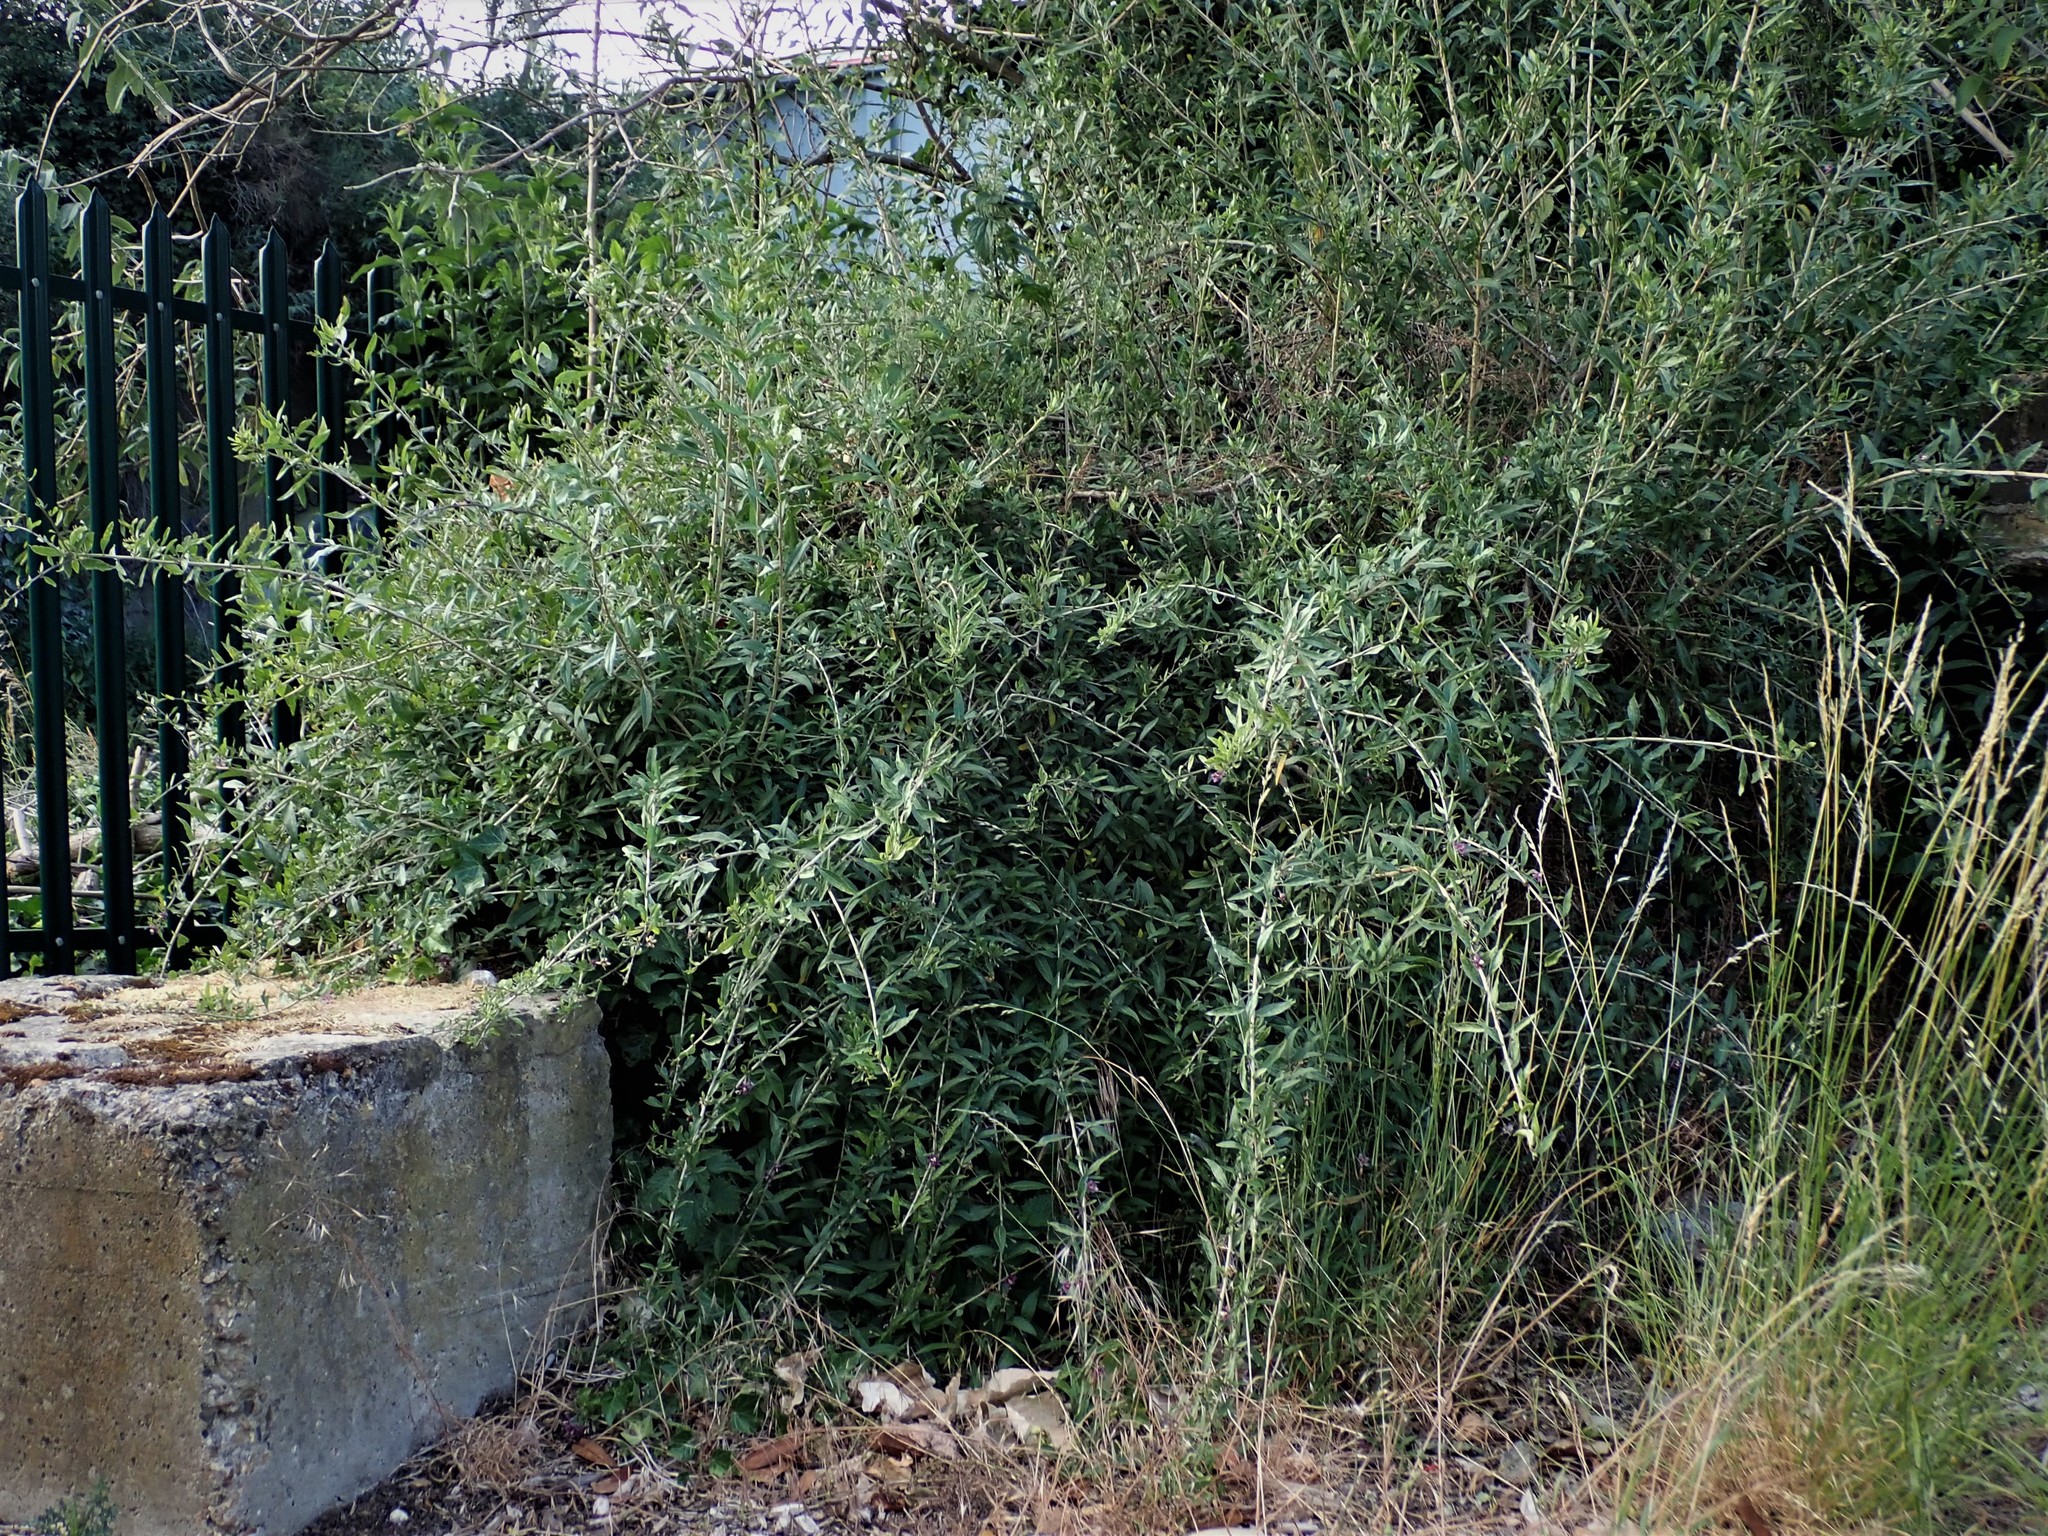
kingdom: Plantae
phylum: Tracheophyta
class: Magnoliopsida
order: Solanales
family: Solanaceae
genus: Lycium
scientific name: Lycium barbarum
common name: Duke of argyll's teaplant
